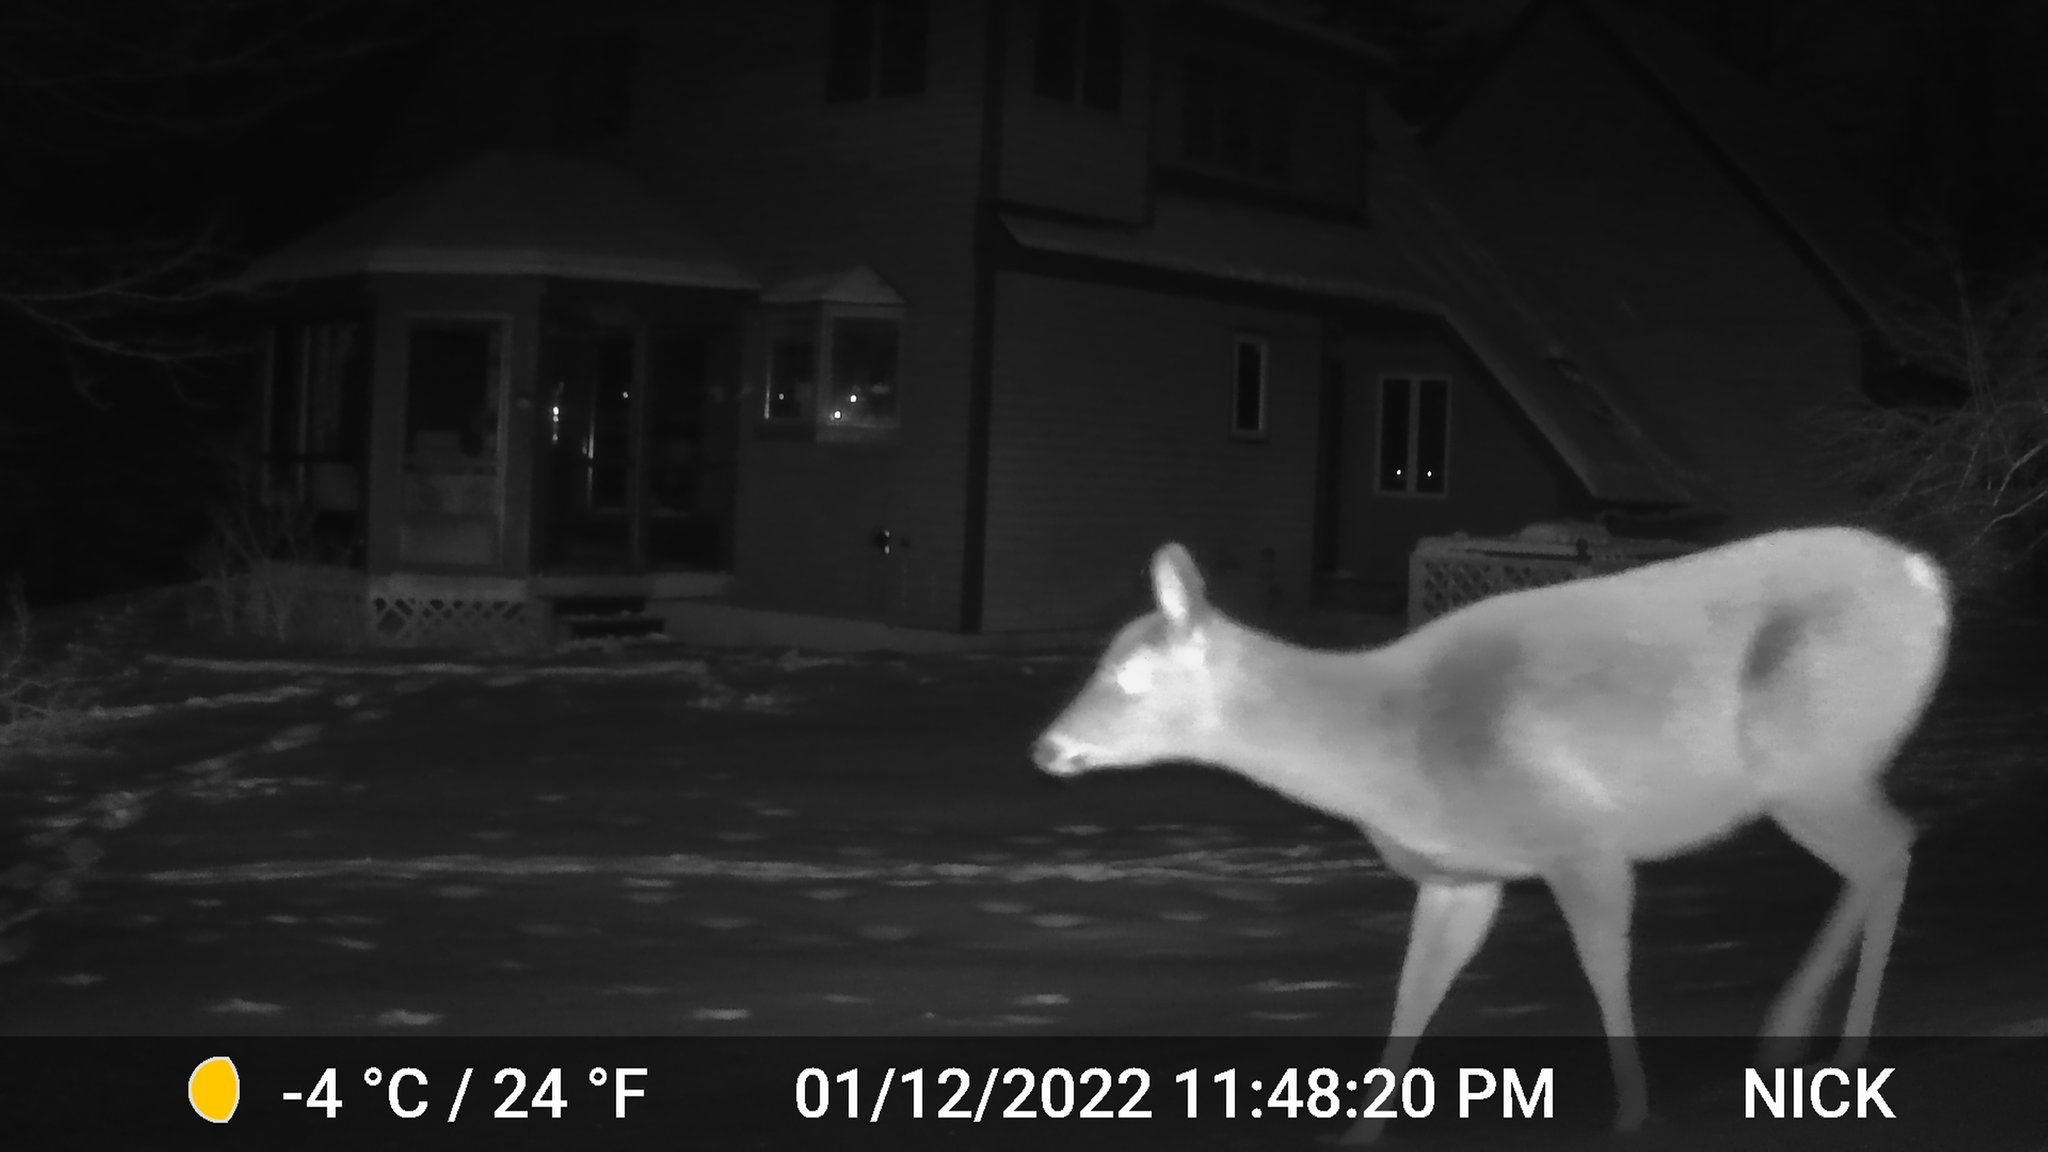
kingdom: Animalia
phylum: Chordata
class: Mammalia
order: Artiodactyla
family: Cervidae
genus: Odocoileus
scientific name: Odocoileus virginianus
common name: White-tailed deer
